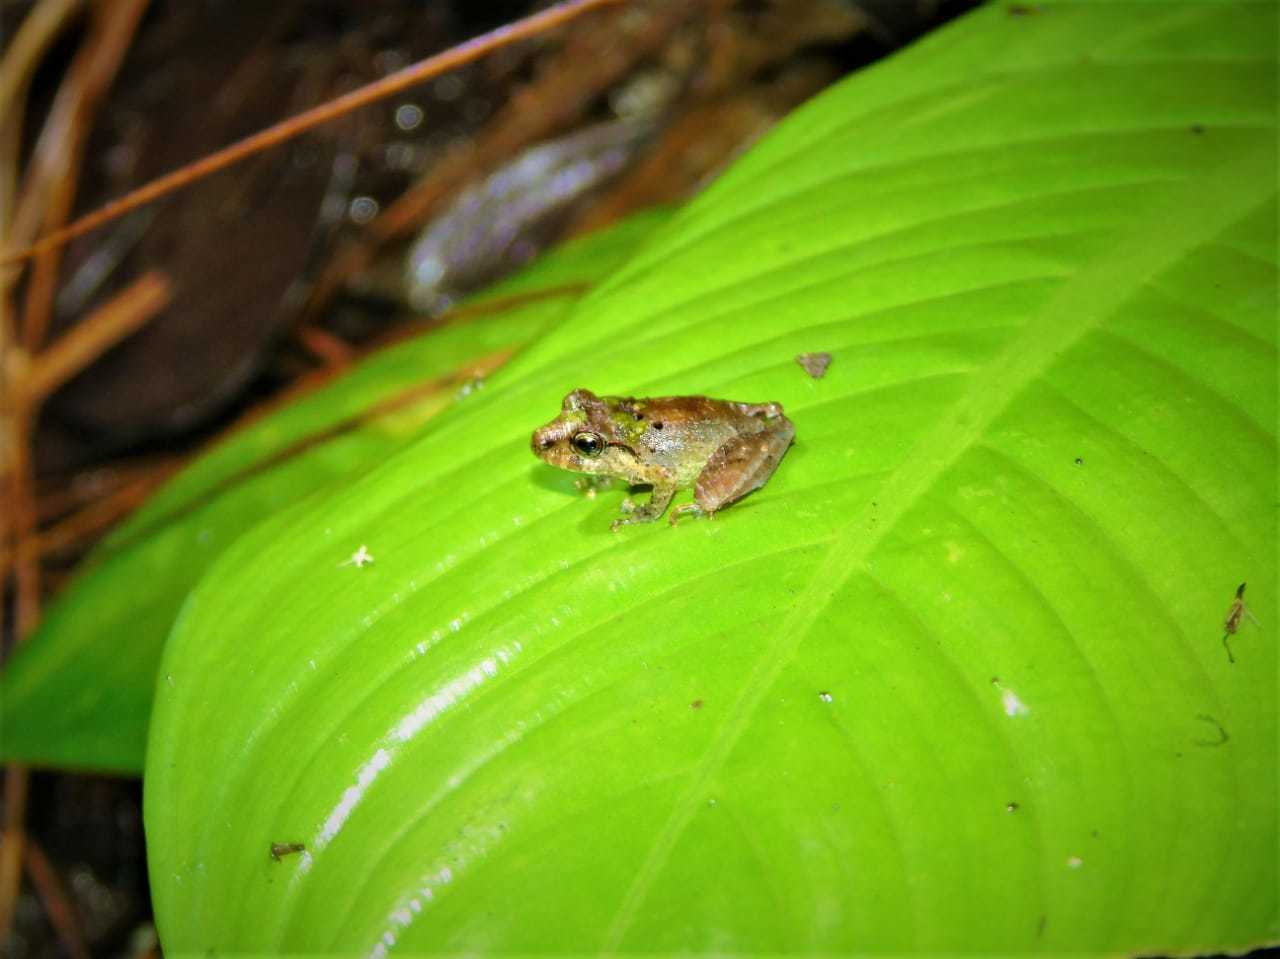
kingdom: Animalia
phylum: Chordata
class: Amphibia
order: Anura
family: Eleutherodactylidae
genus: Diasporus
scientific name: Diasporus diastema
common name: Caretta robber frog
